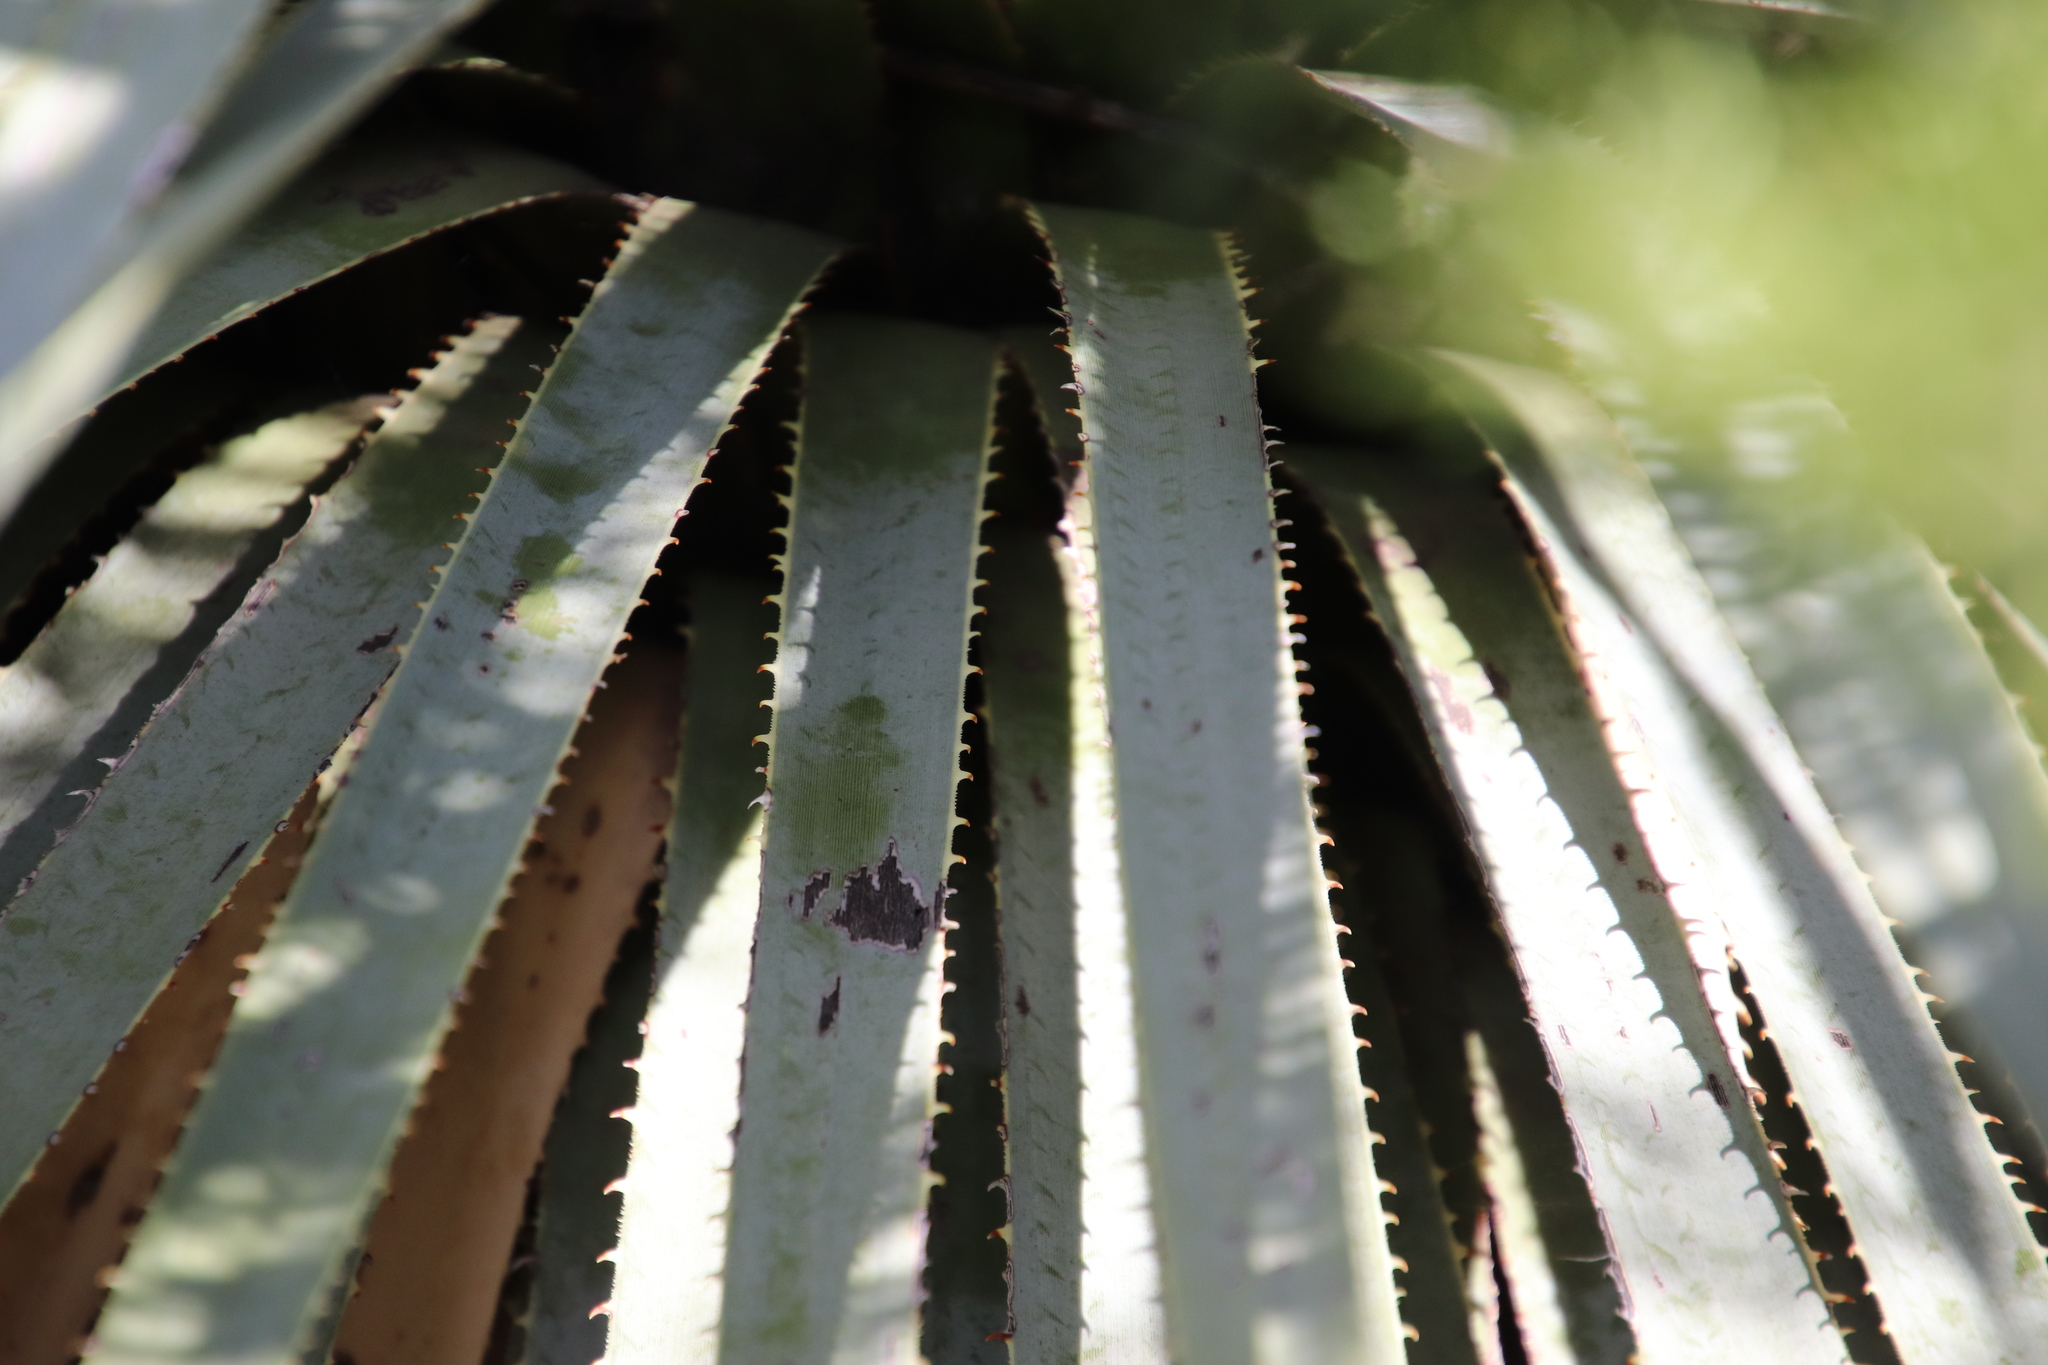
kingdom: Plantae
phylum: Tracheophyta
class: Liliopsida
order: Asparagales
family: Asparagaceae
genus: Dasylirion
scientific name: Dasylirion wheeleri
